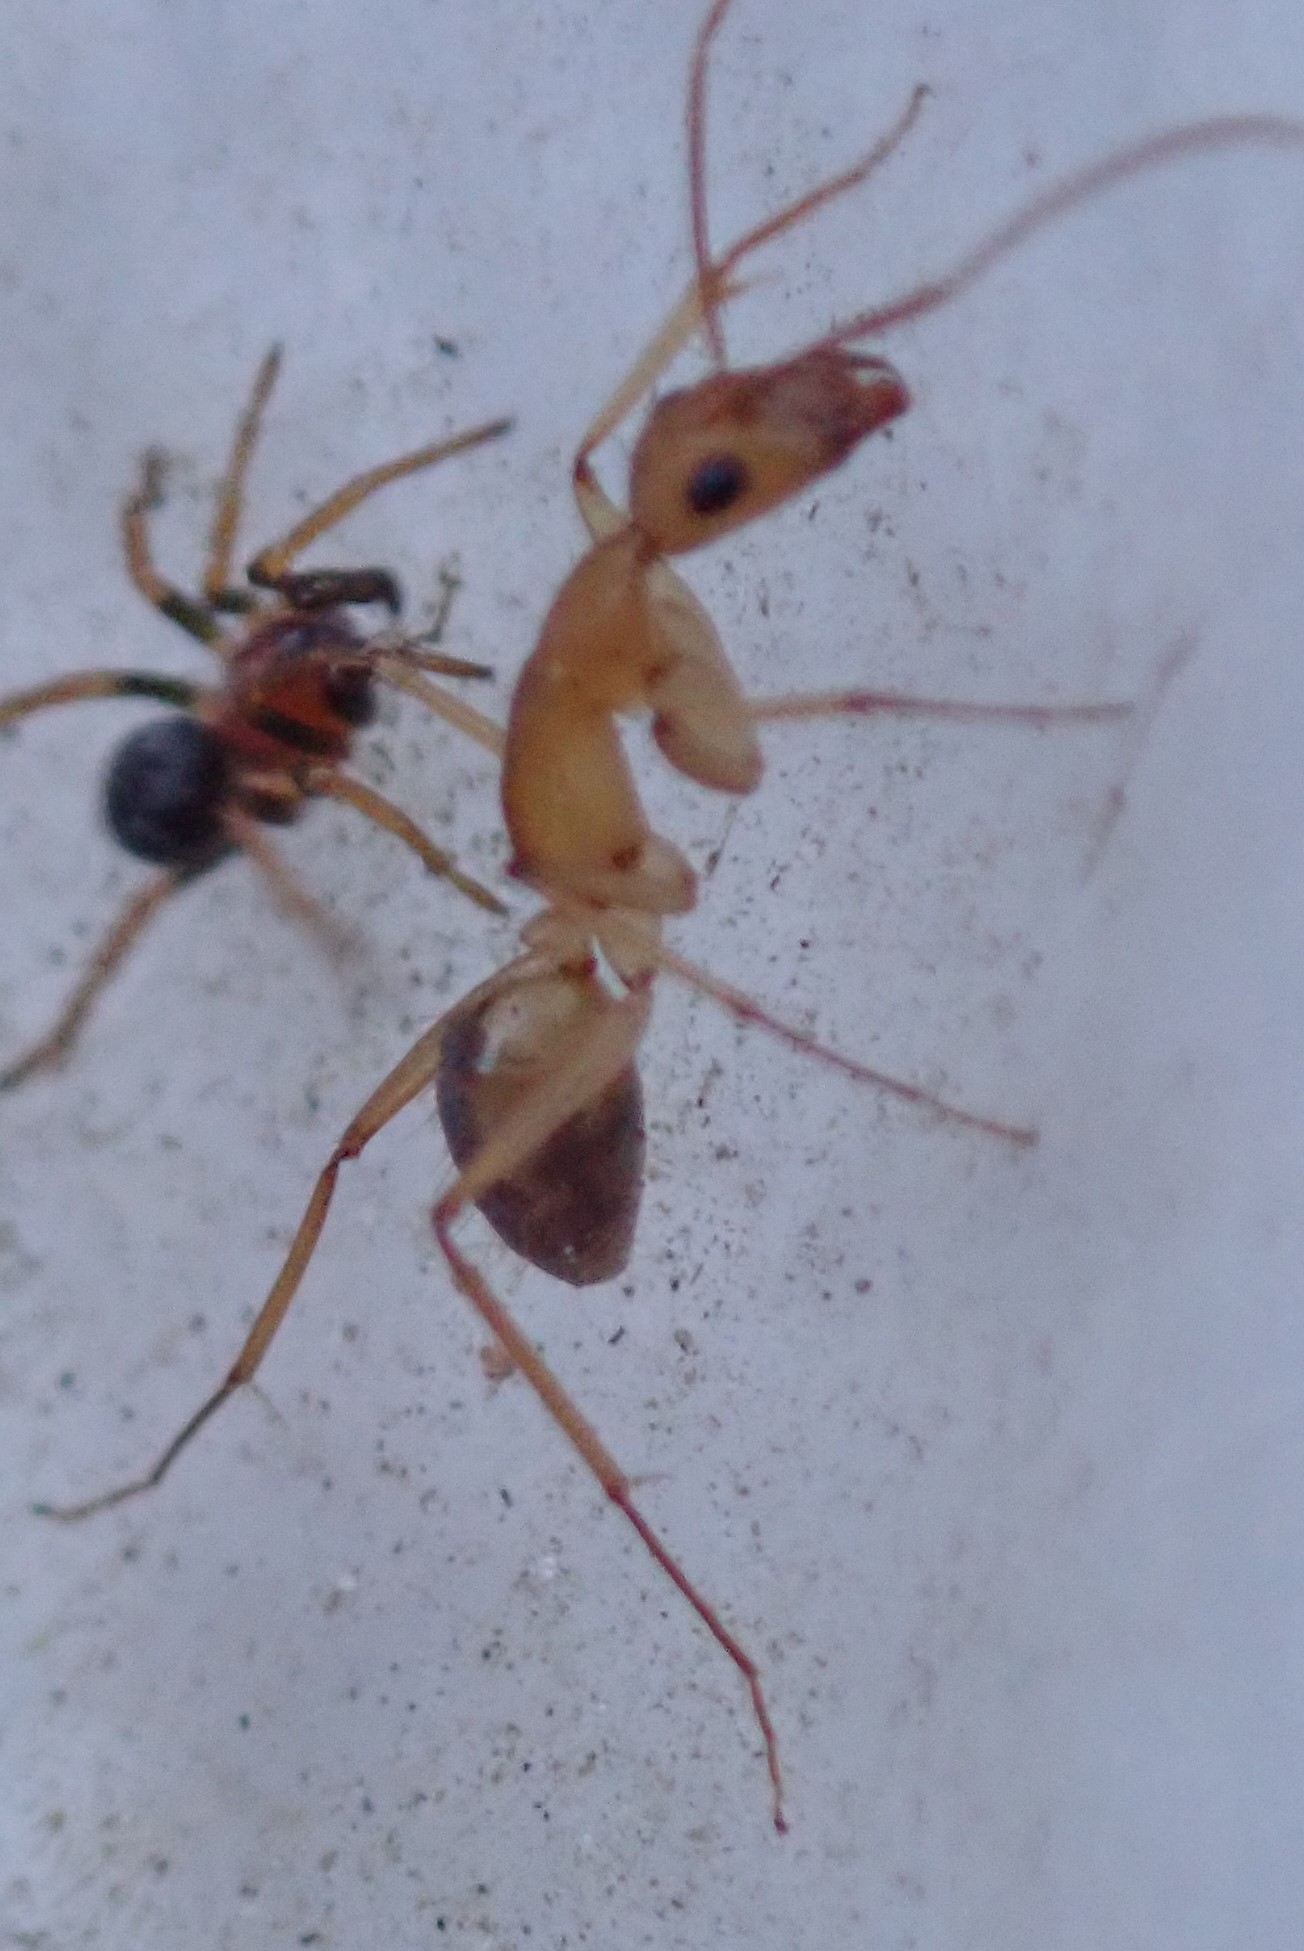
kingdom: Animalia
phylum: Arthropoda
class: Insecta
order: Hymenoptera
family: Formicidae
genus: Camponotus
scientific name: Camponotus
